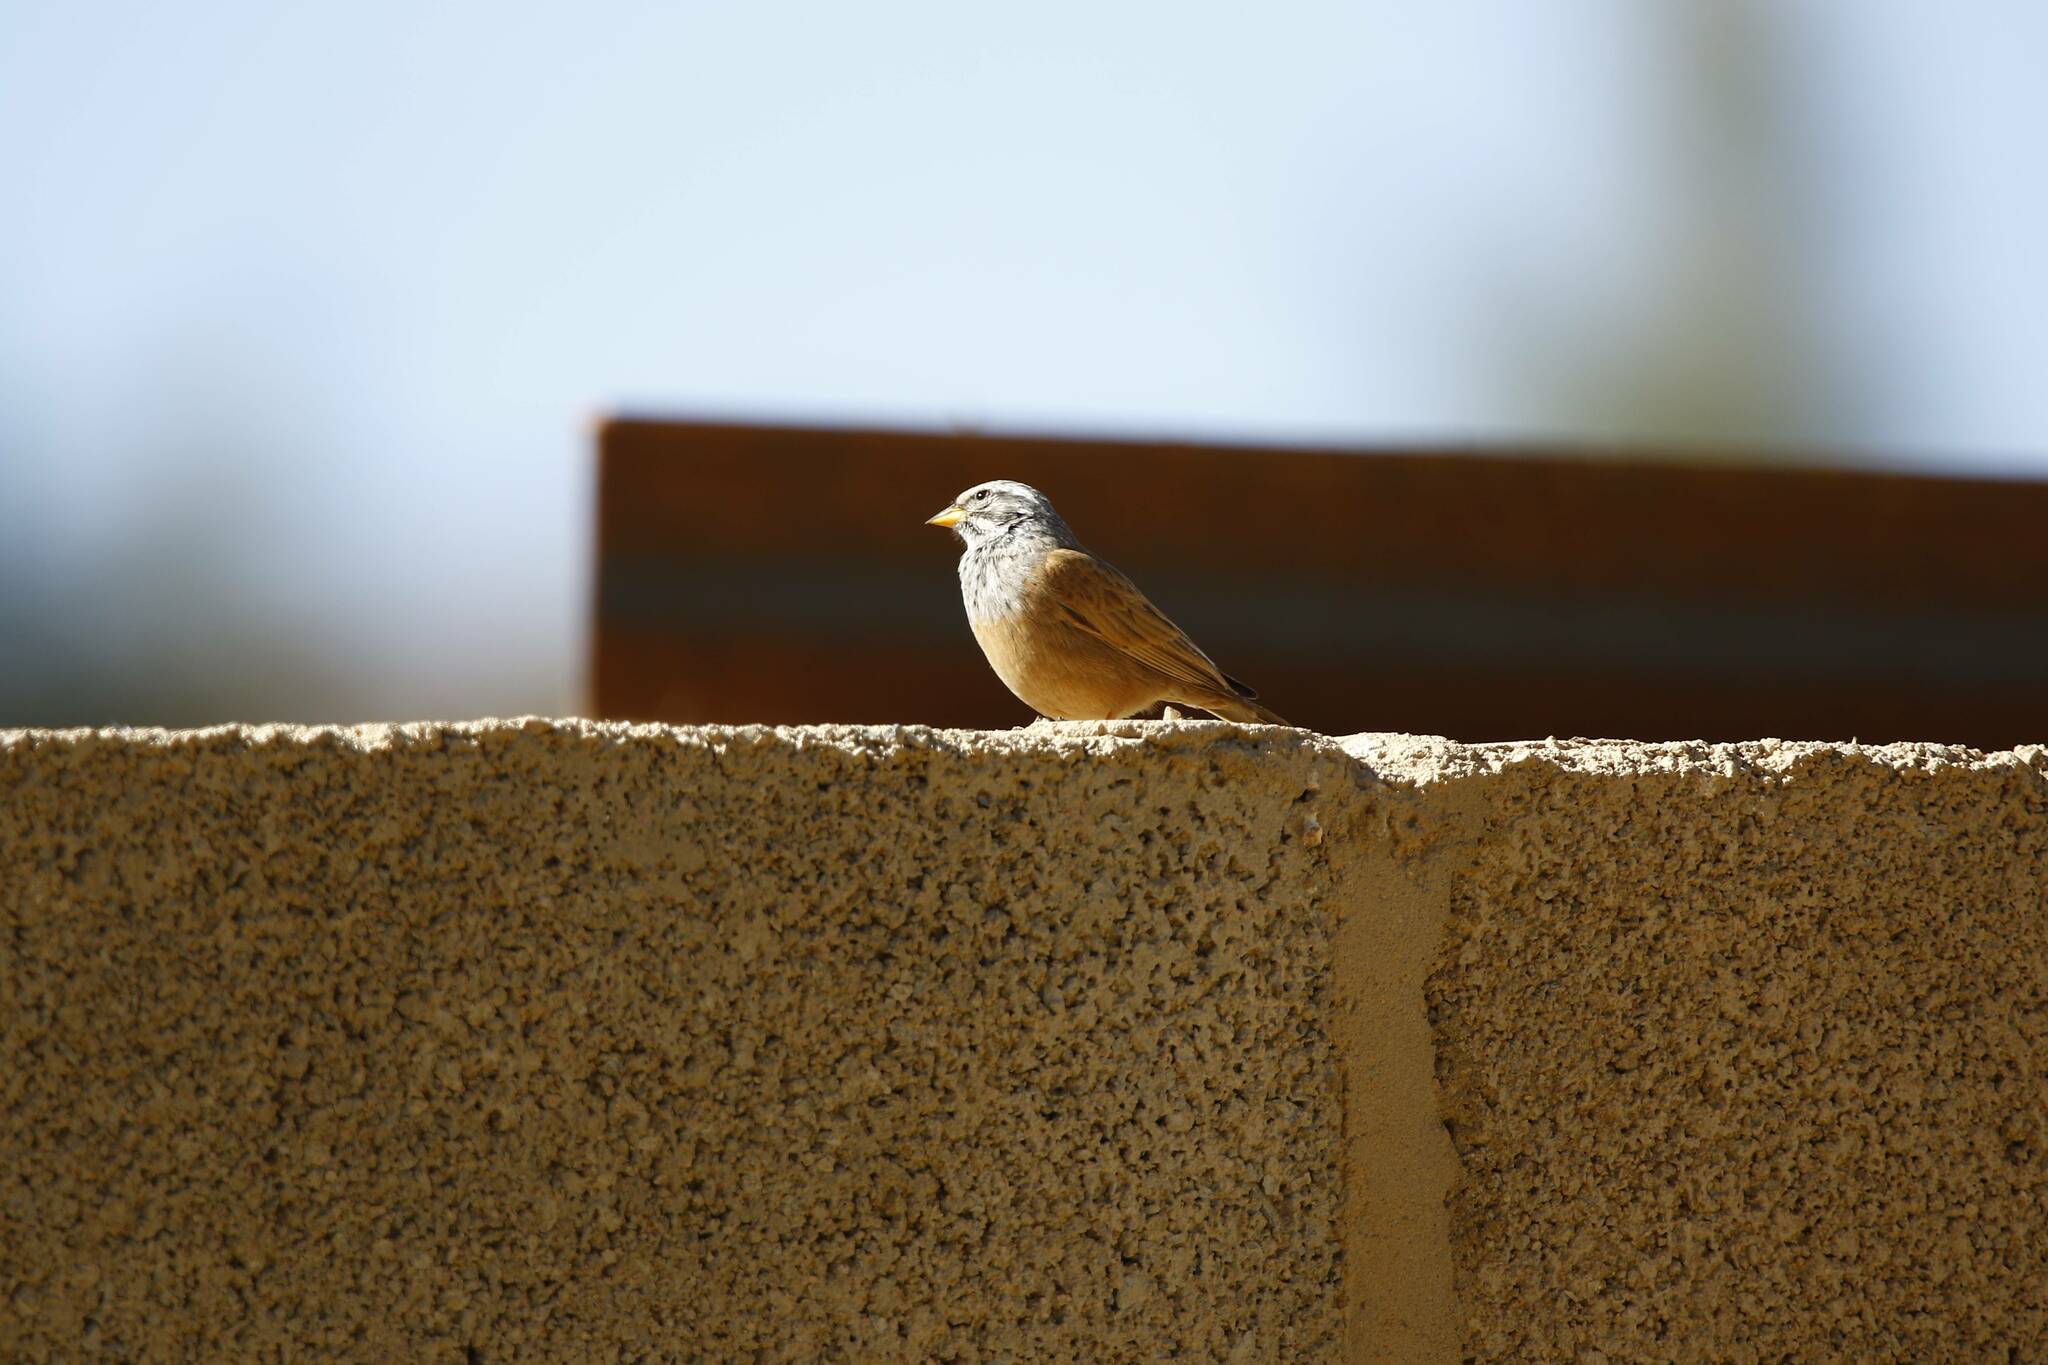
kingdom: Animalia
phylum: Chordata
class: Aves
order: Passeriformes
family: Emberizidae
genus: Emberiza
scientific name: Emberiza sahari
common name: House bunting
